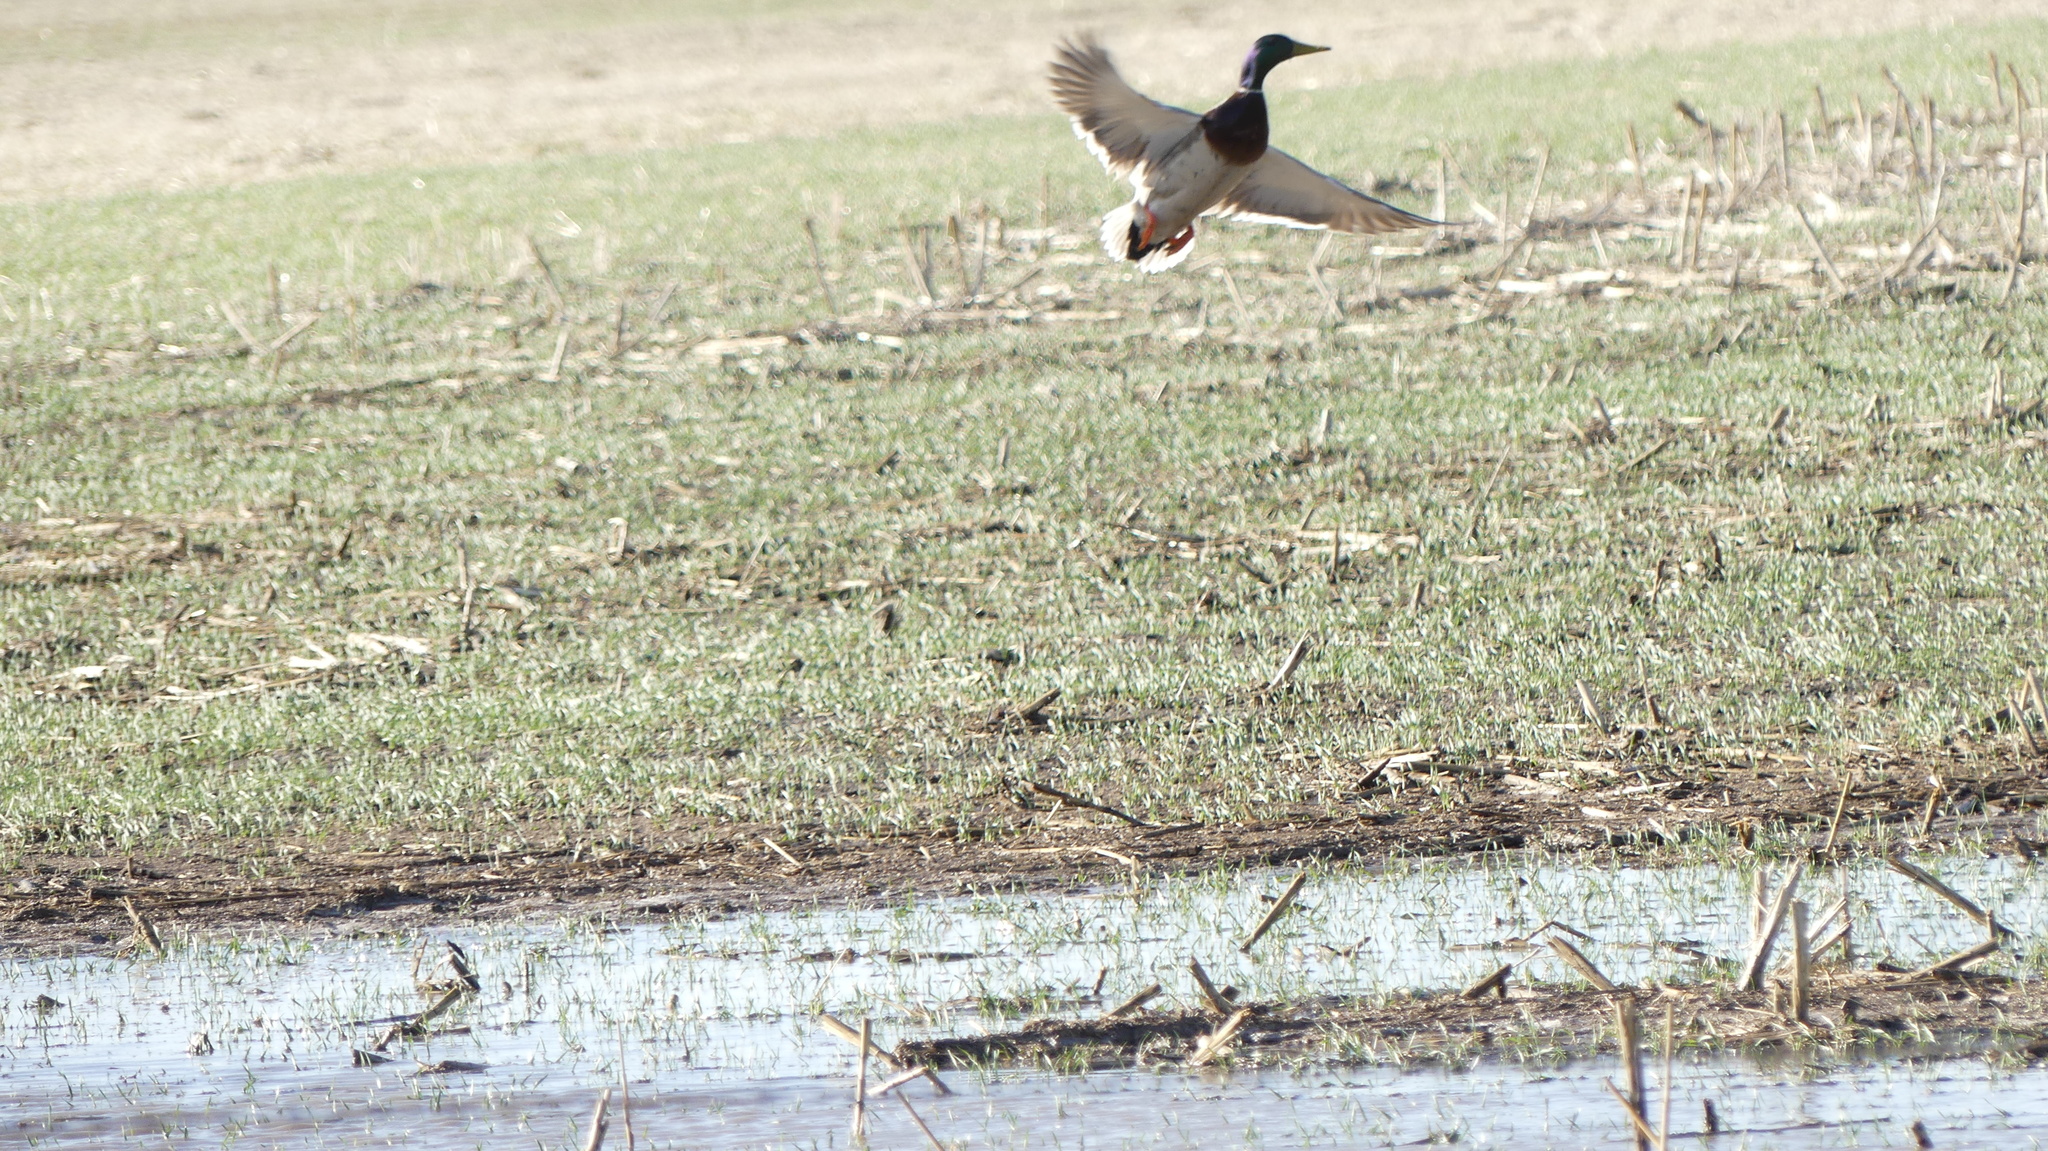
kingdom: Animalia
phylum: Chordata
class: Aves
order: Anseriformes
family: Anatidae
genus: Anas
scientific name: Anas platyrhynchos
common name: Mallard
